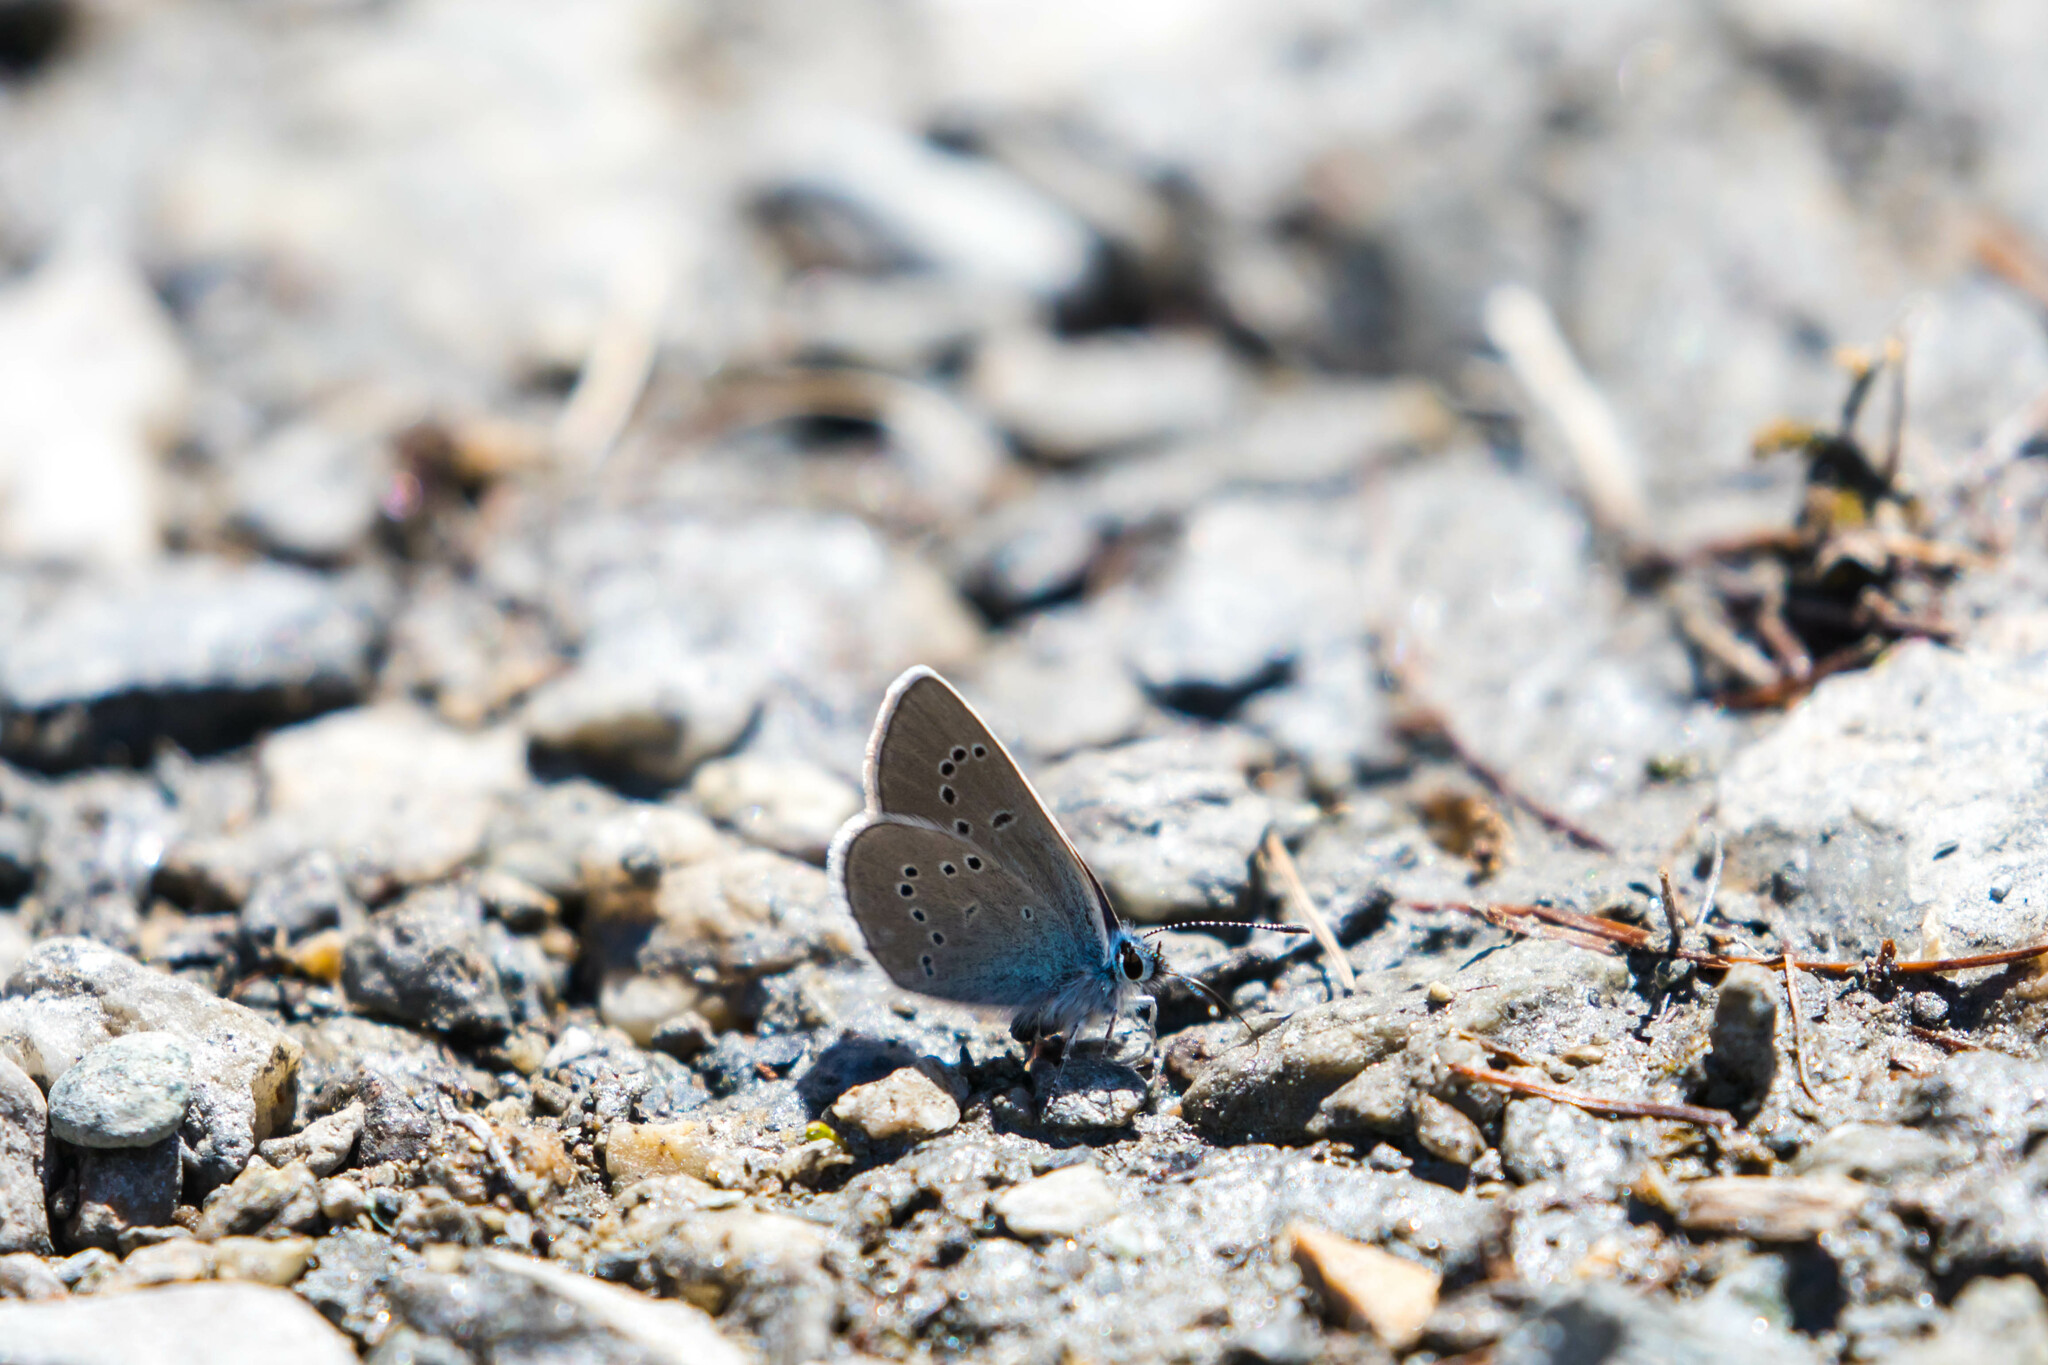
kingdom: Animalia
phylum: Arthropoda
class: Insecta
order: Lepidoptera
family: Lycaenidae
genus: Cyaniris
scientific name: Cyaniris semiargus
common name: Mazarine blue
